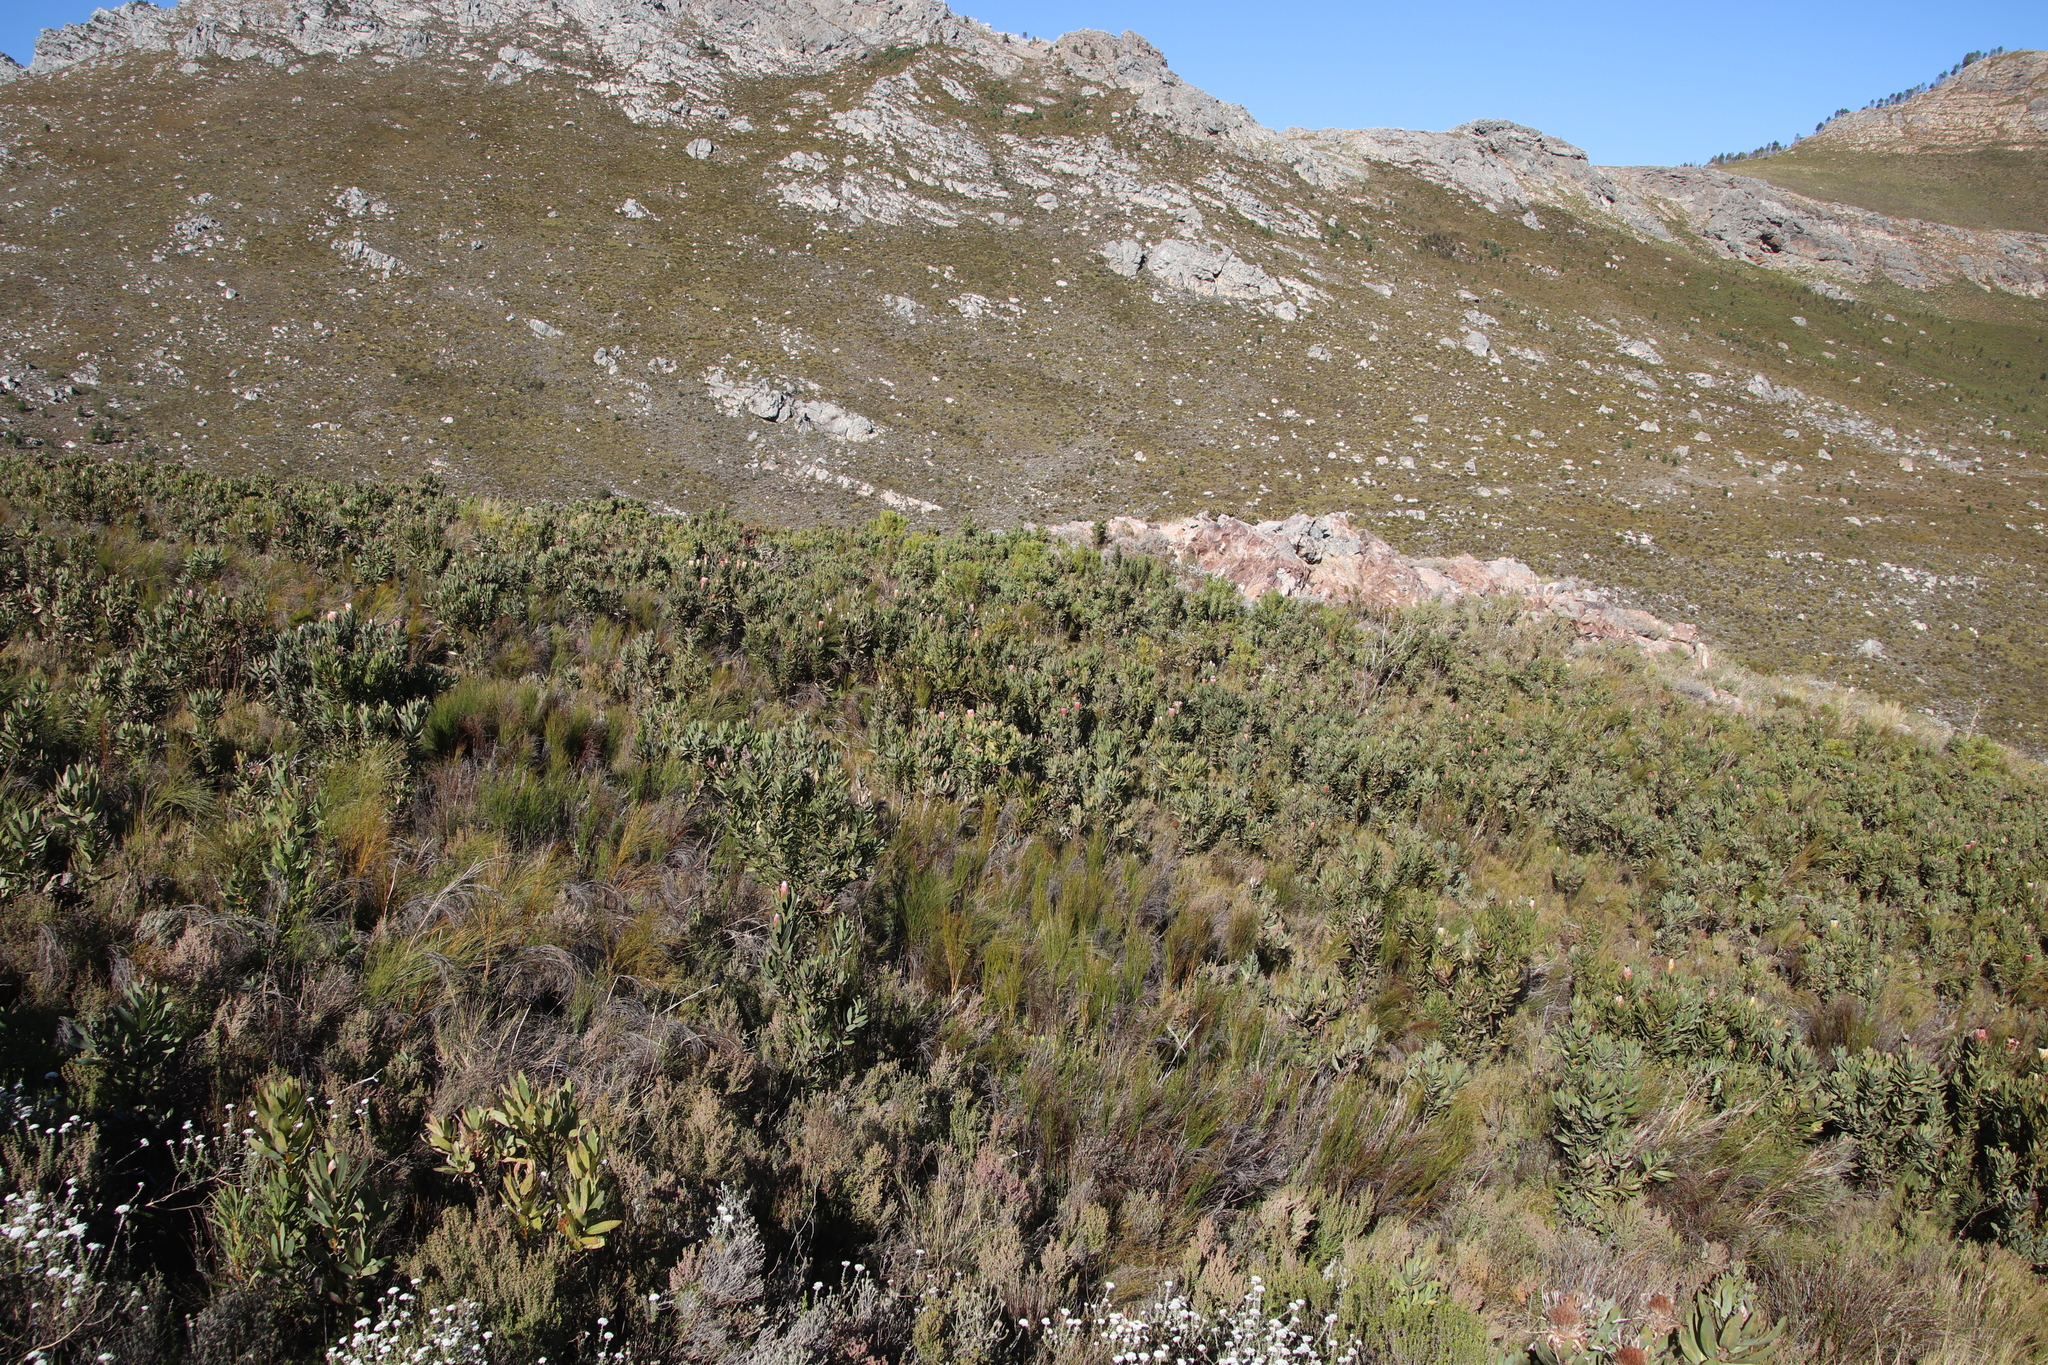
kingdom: Plantae
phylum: Tracheophyta
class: Magnoliopsida
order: Proteales
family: Proteaceae
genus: Protea
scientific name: Protea laurifolia
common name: Grey-leaf sugarbsh
